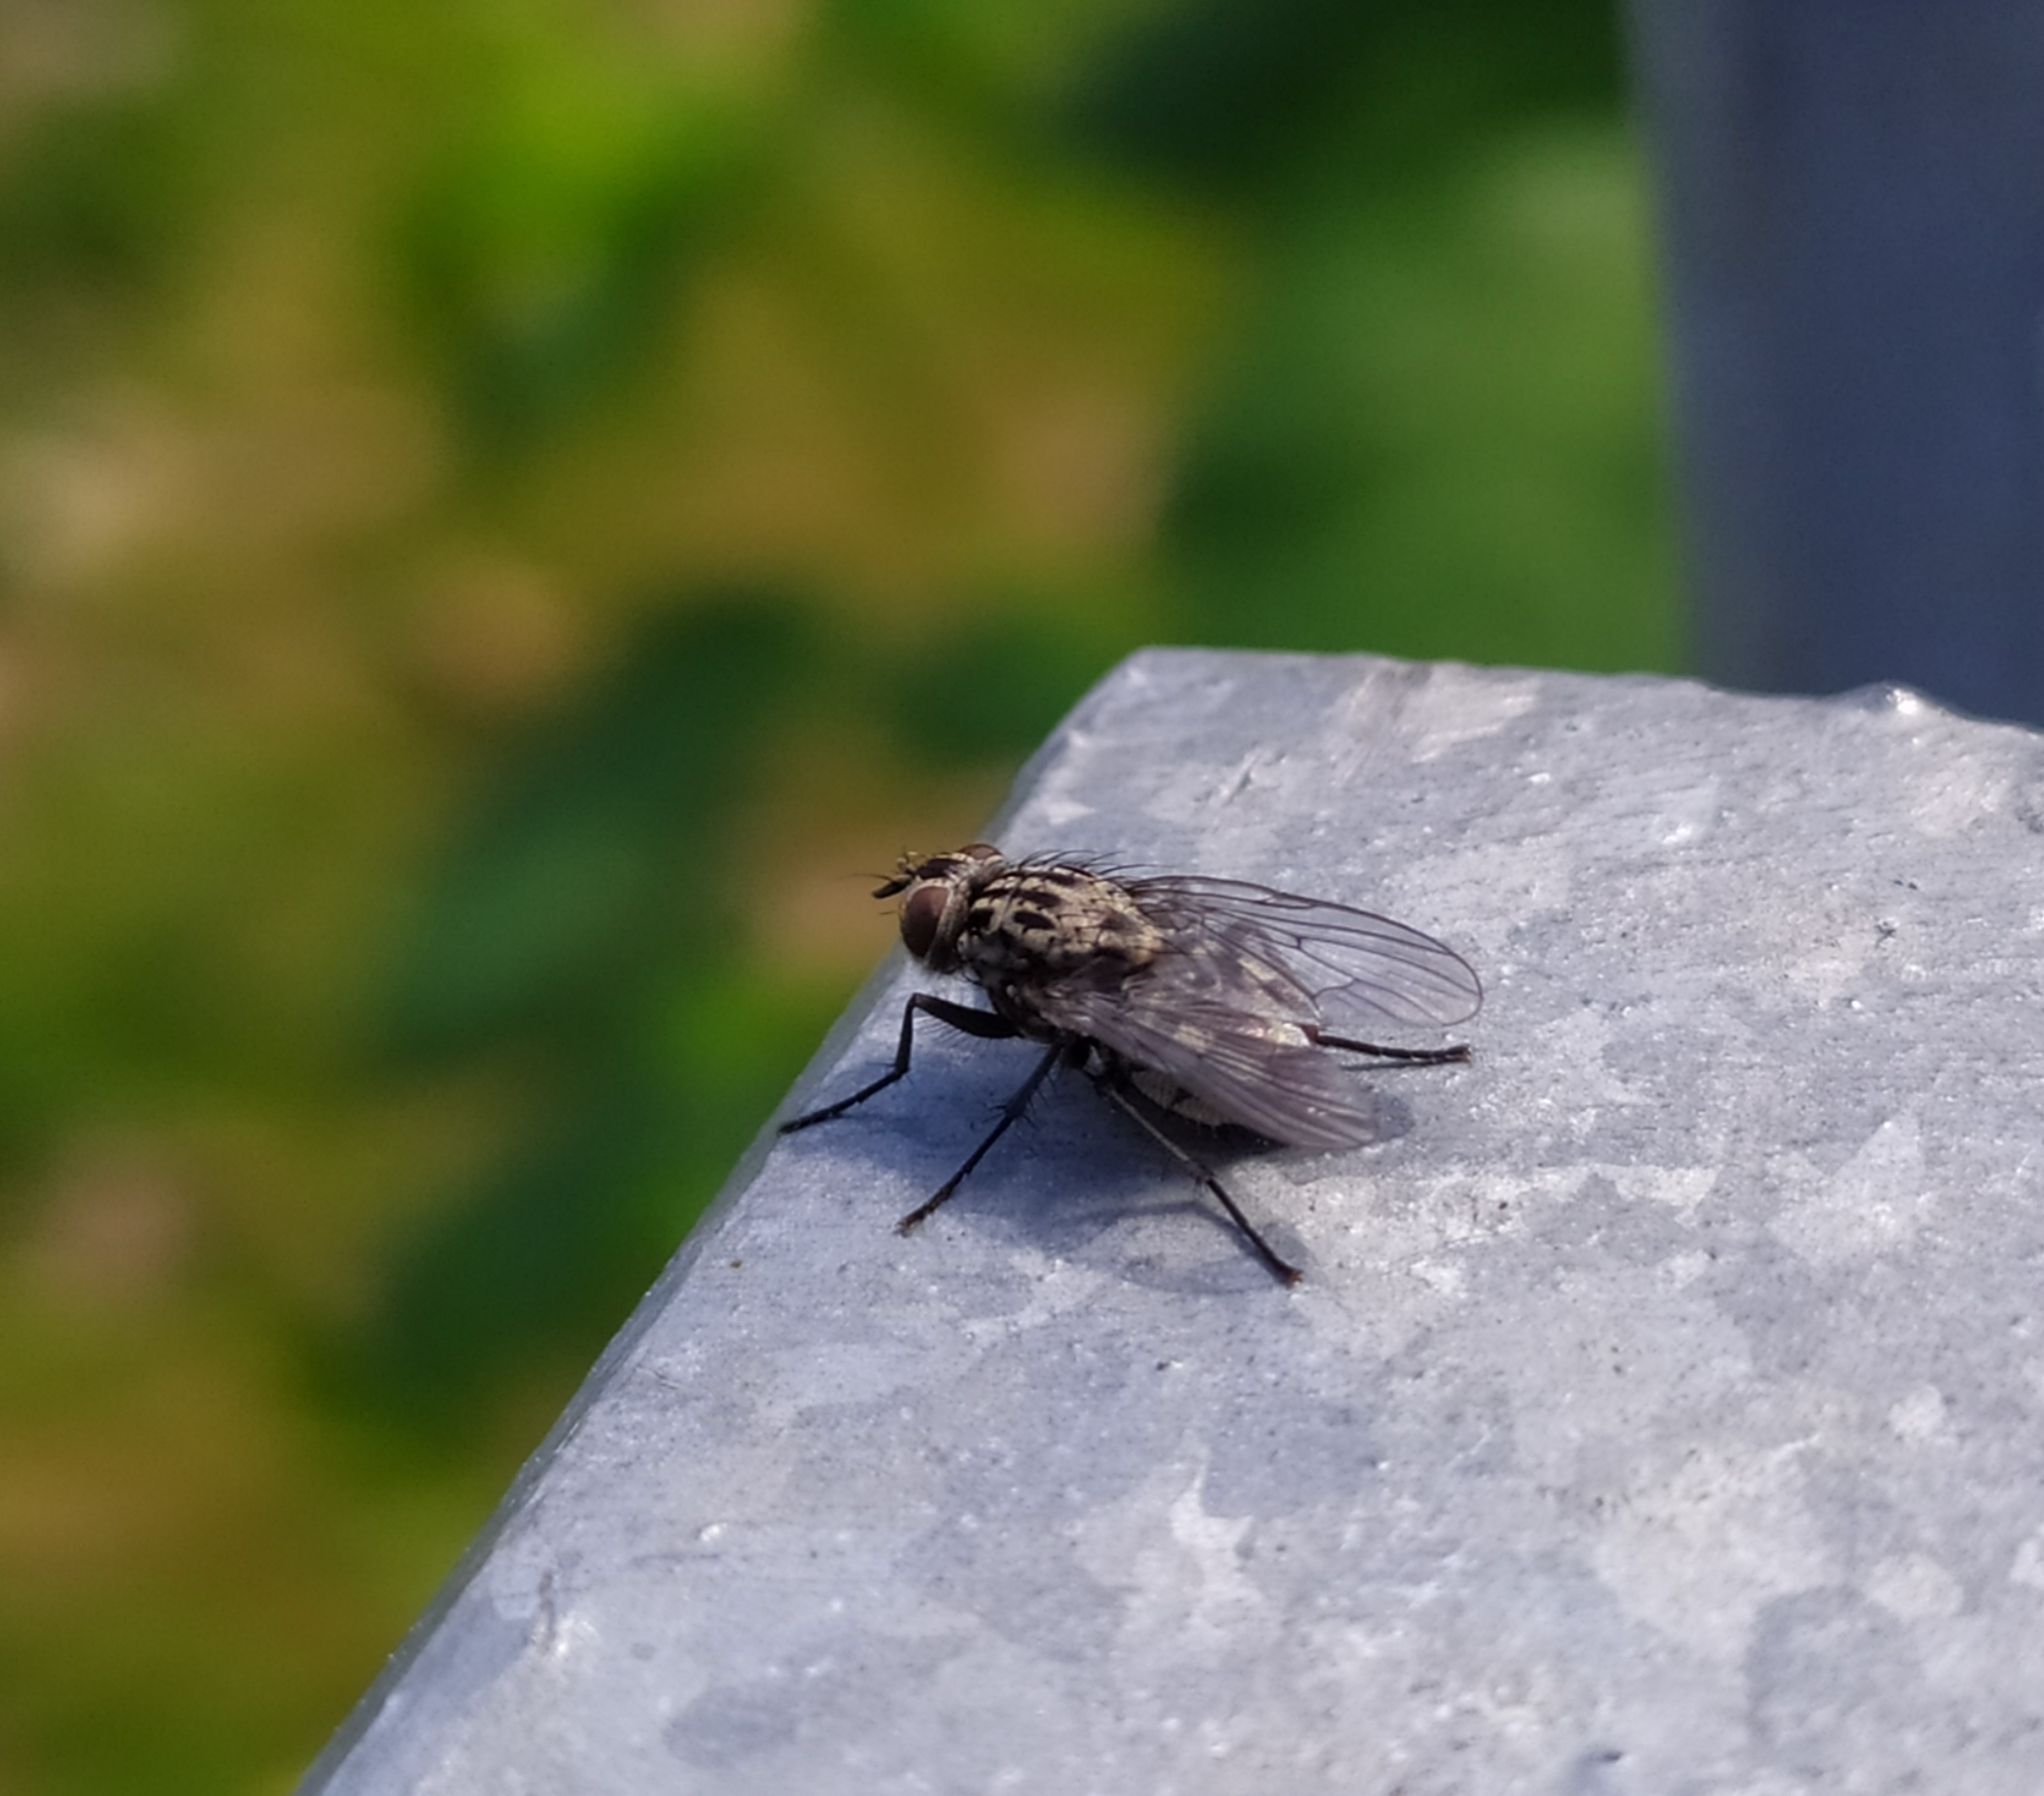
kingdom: Animalia
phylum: Arthropoda
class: Insecta
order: Diptera
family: Muscidae
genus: Phaonia
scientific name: Phaonia trimaculata
